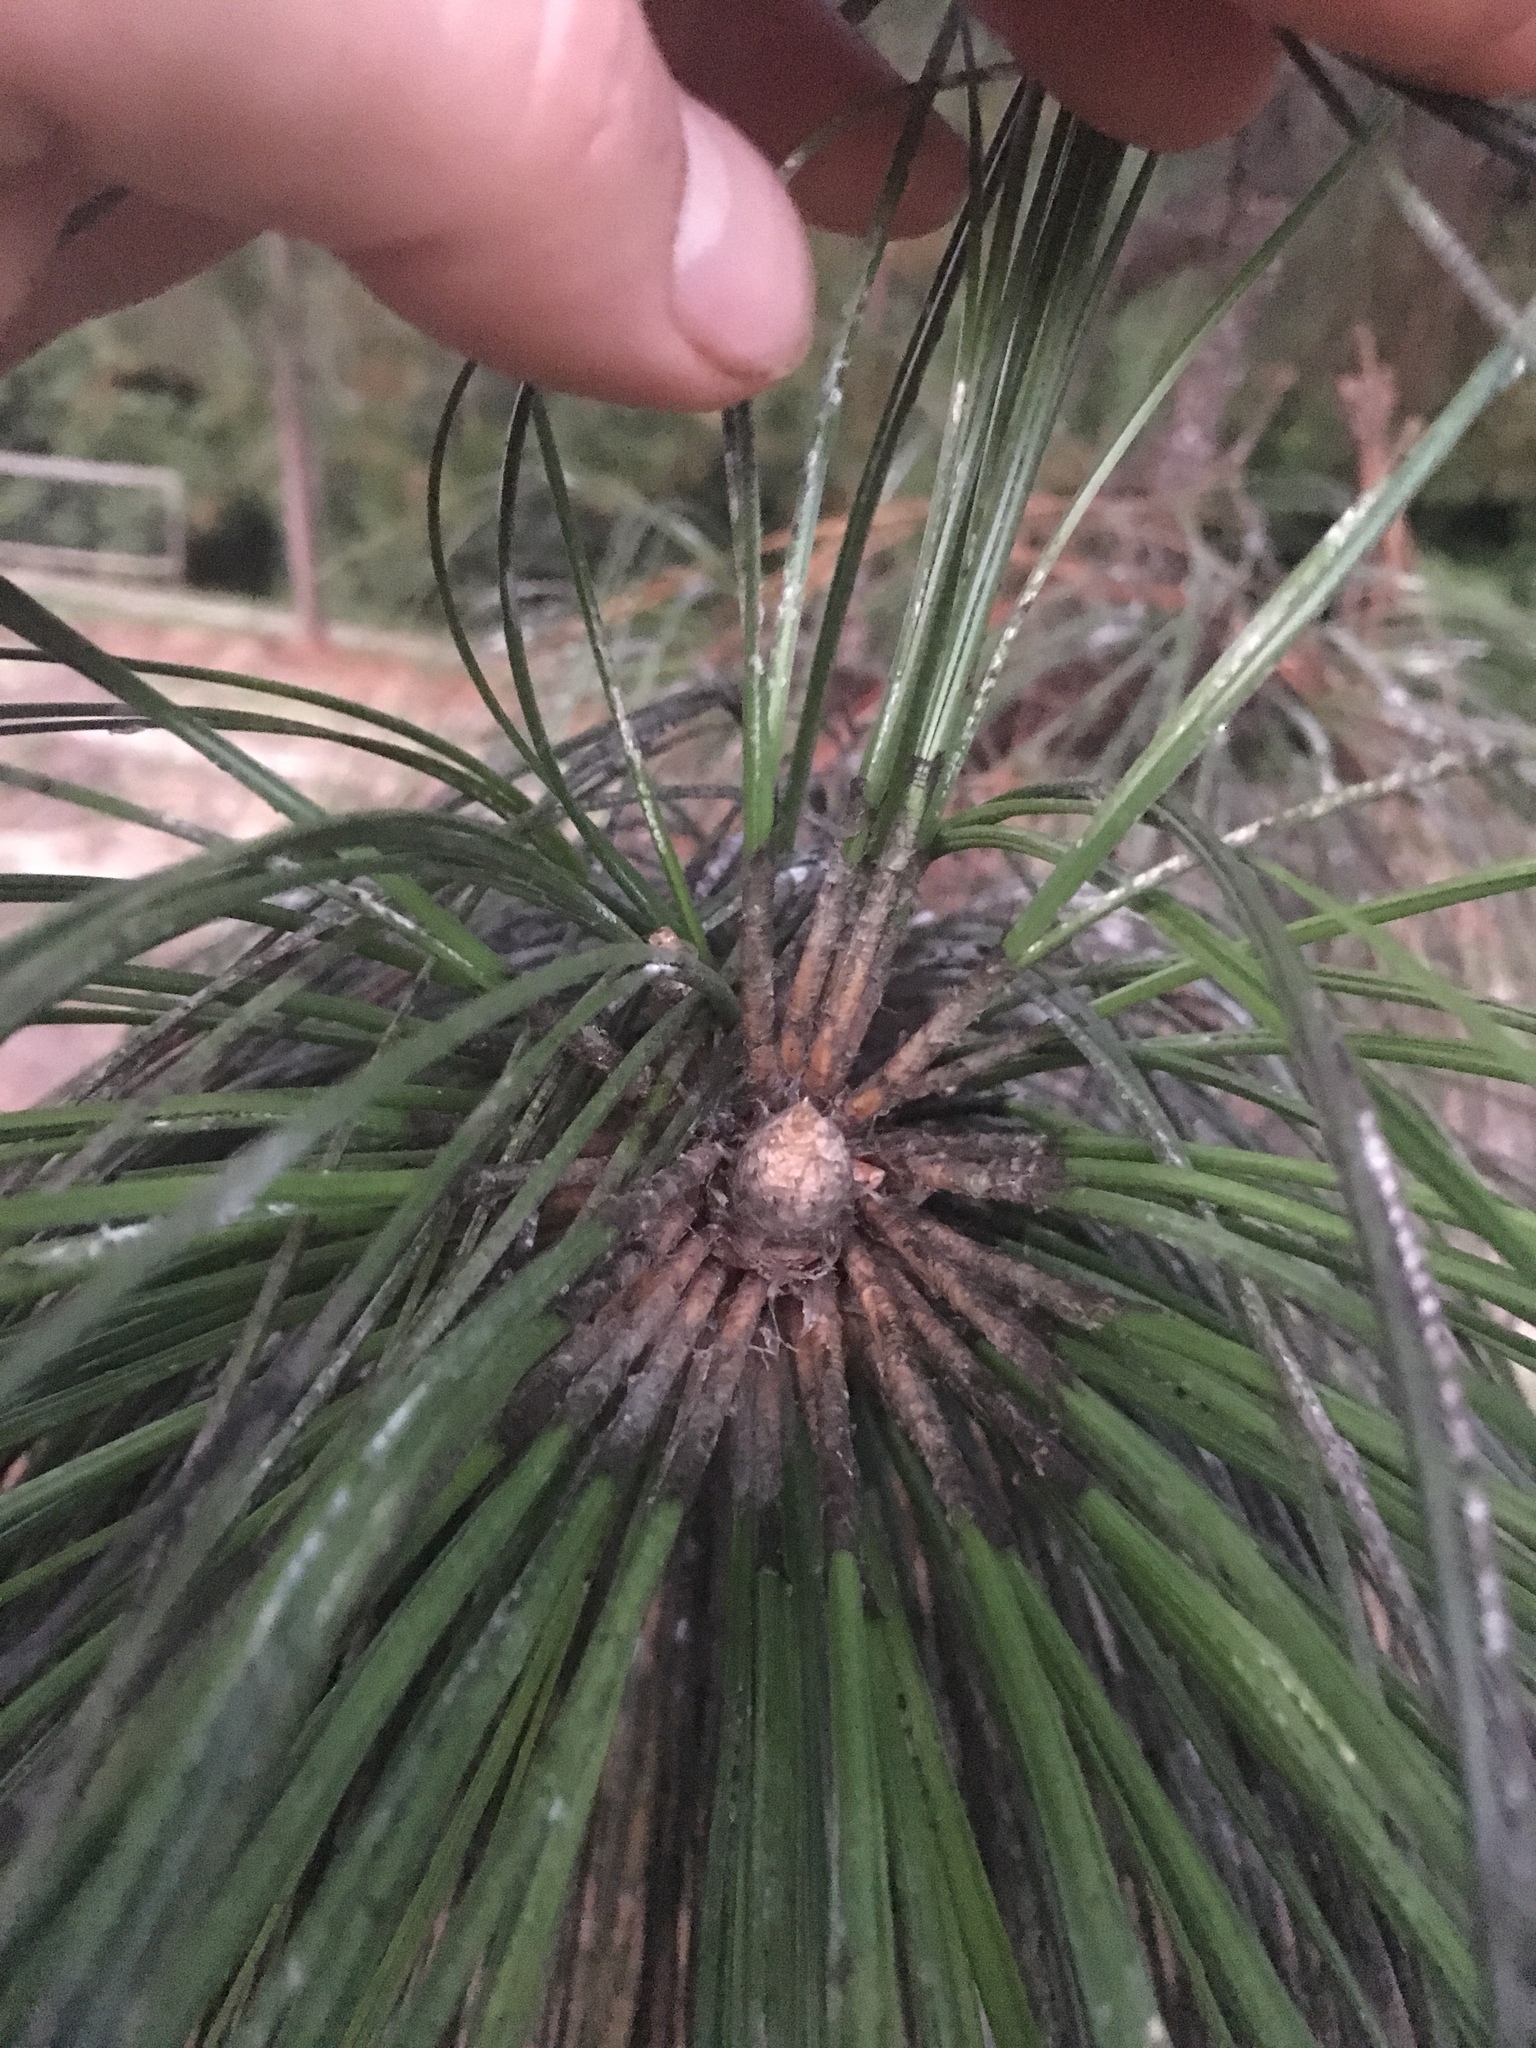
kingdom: Plantae
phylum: Tracheophyta
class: Pinopsida
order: Pinales
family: Pinaceae
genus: Pinus
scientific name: Pinus palustris
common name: Longleaf pine
